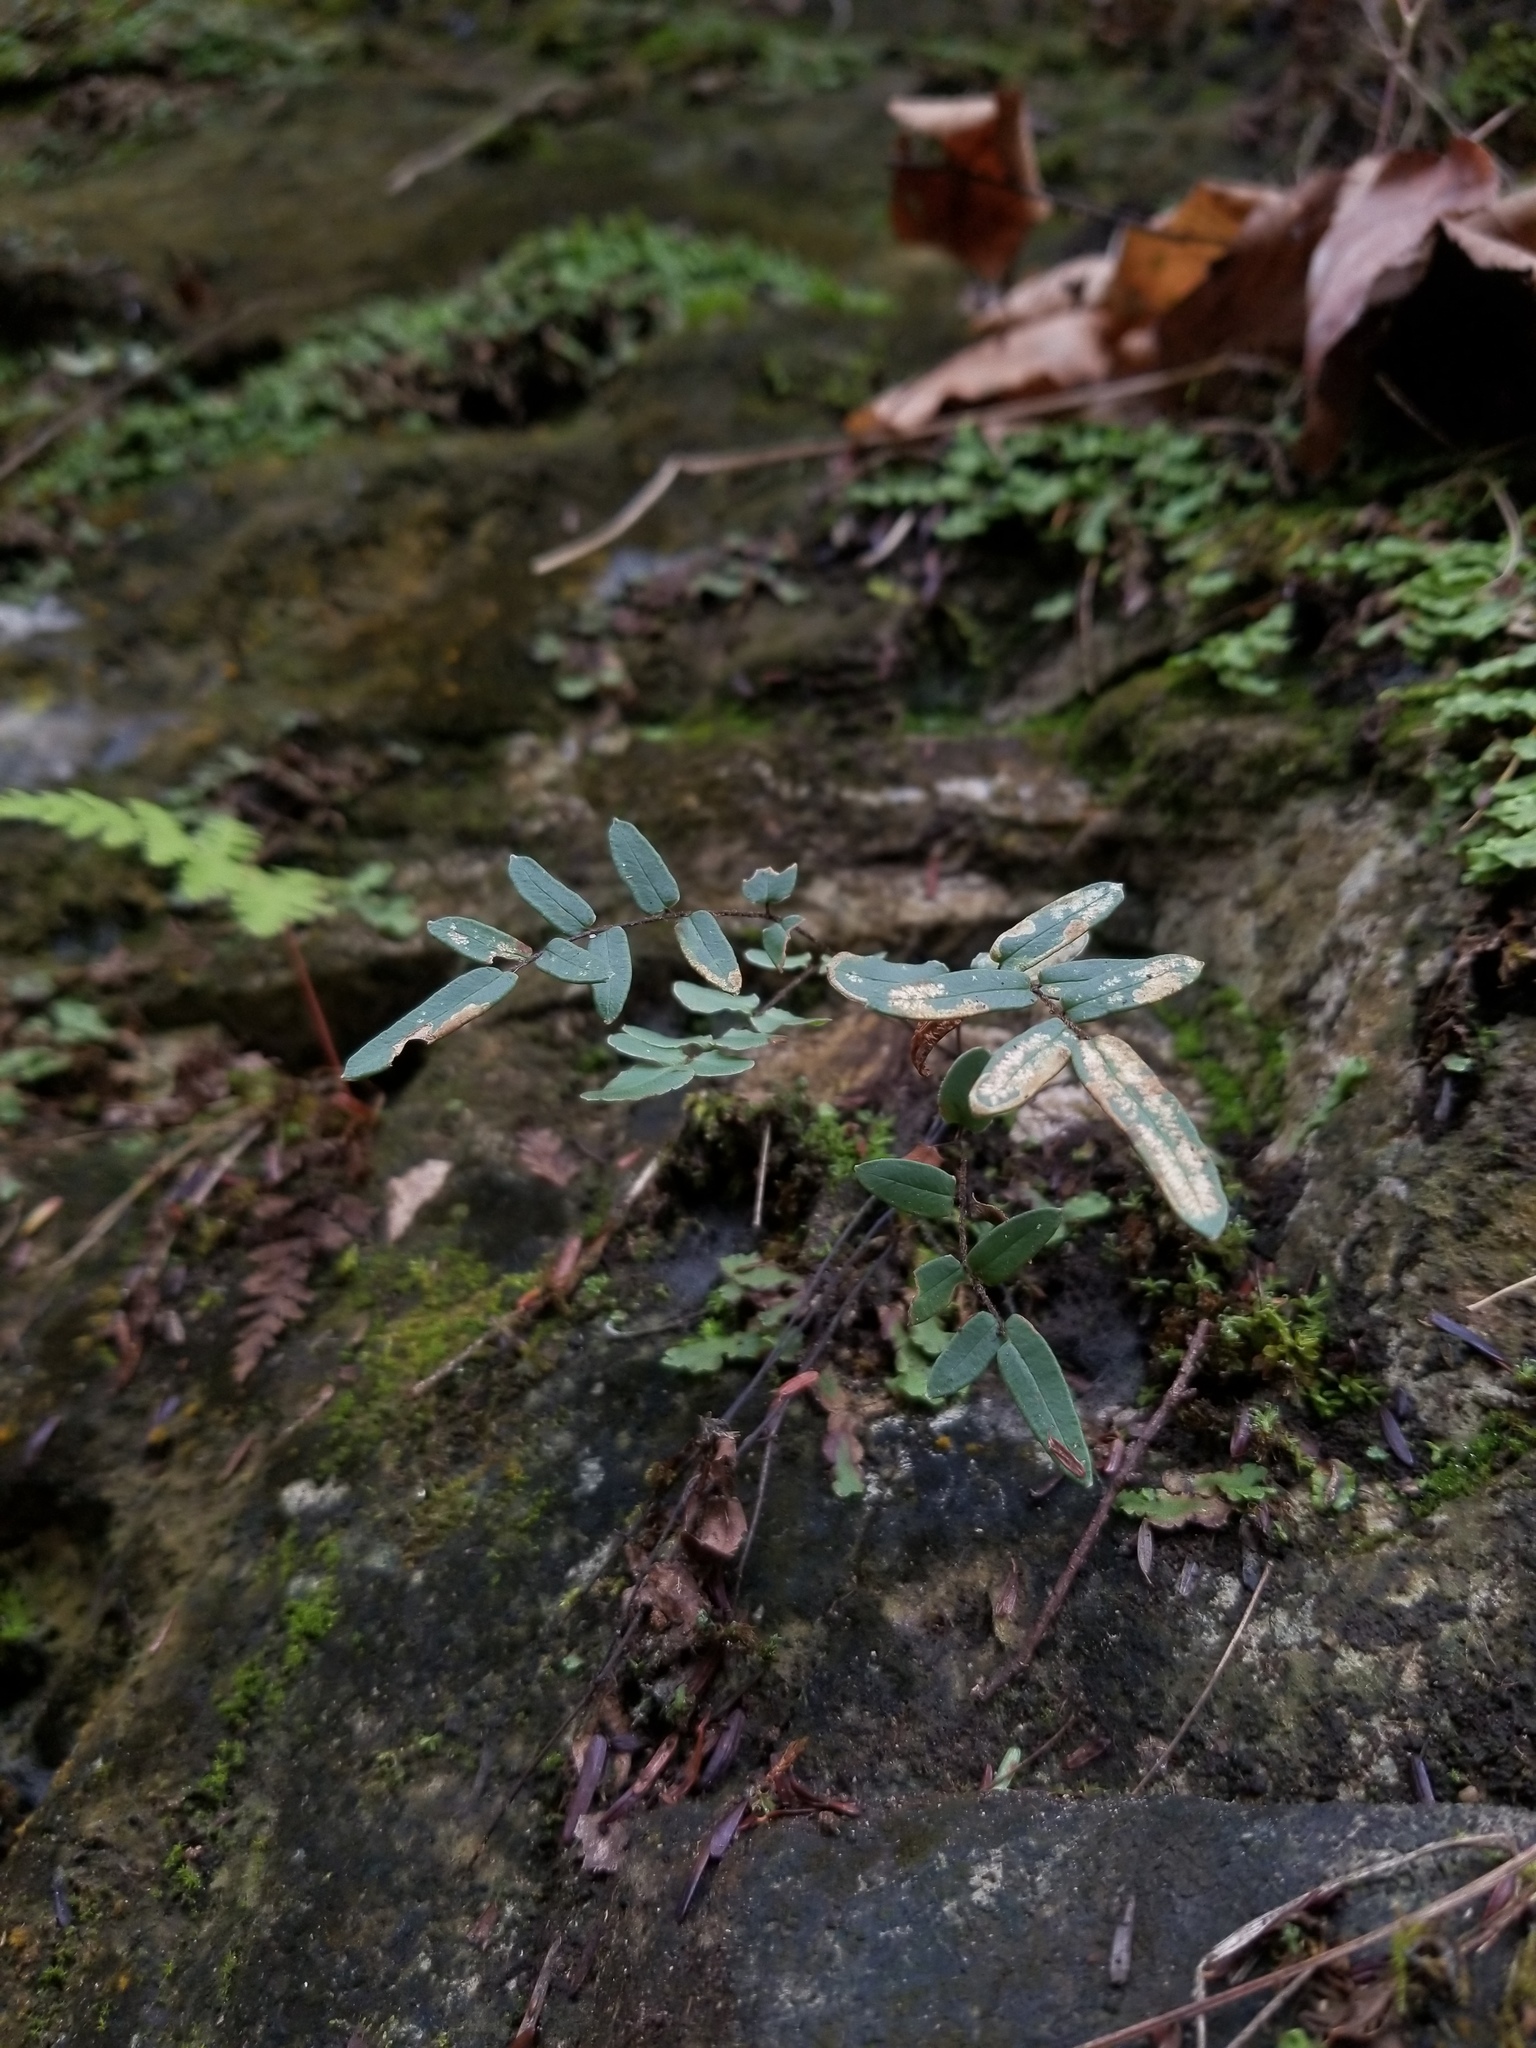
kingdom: Plantae
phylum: Tracheophyta
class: Polypodiopsida
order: Polypodiales
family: Pteridaceae
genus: Pellaea
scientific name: Pellaea atropurpurea
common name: Hairy cliffbrake
